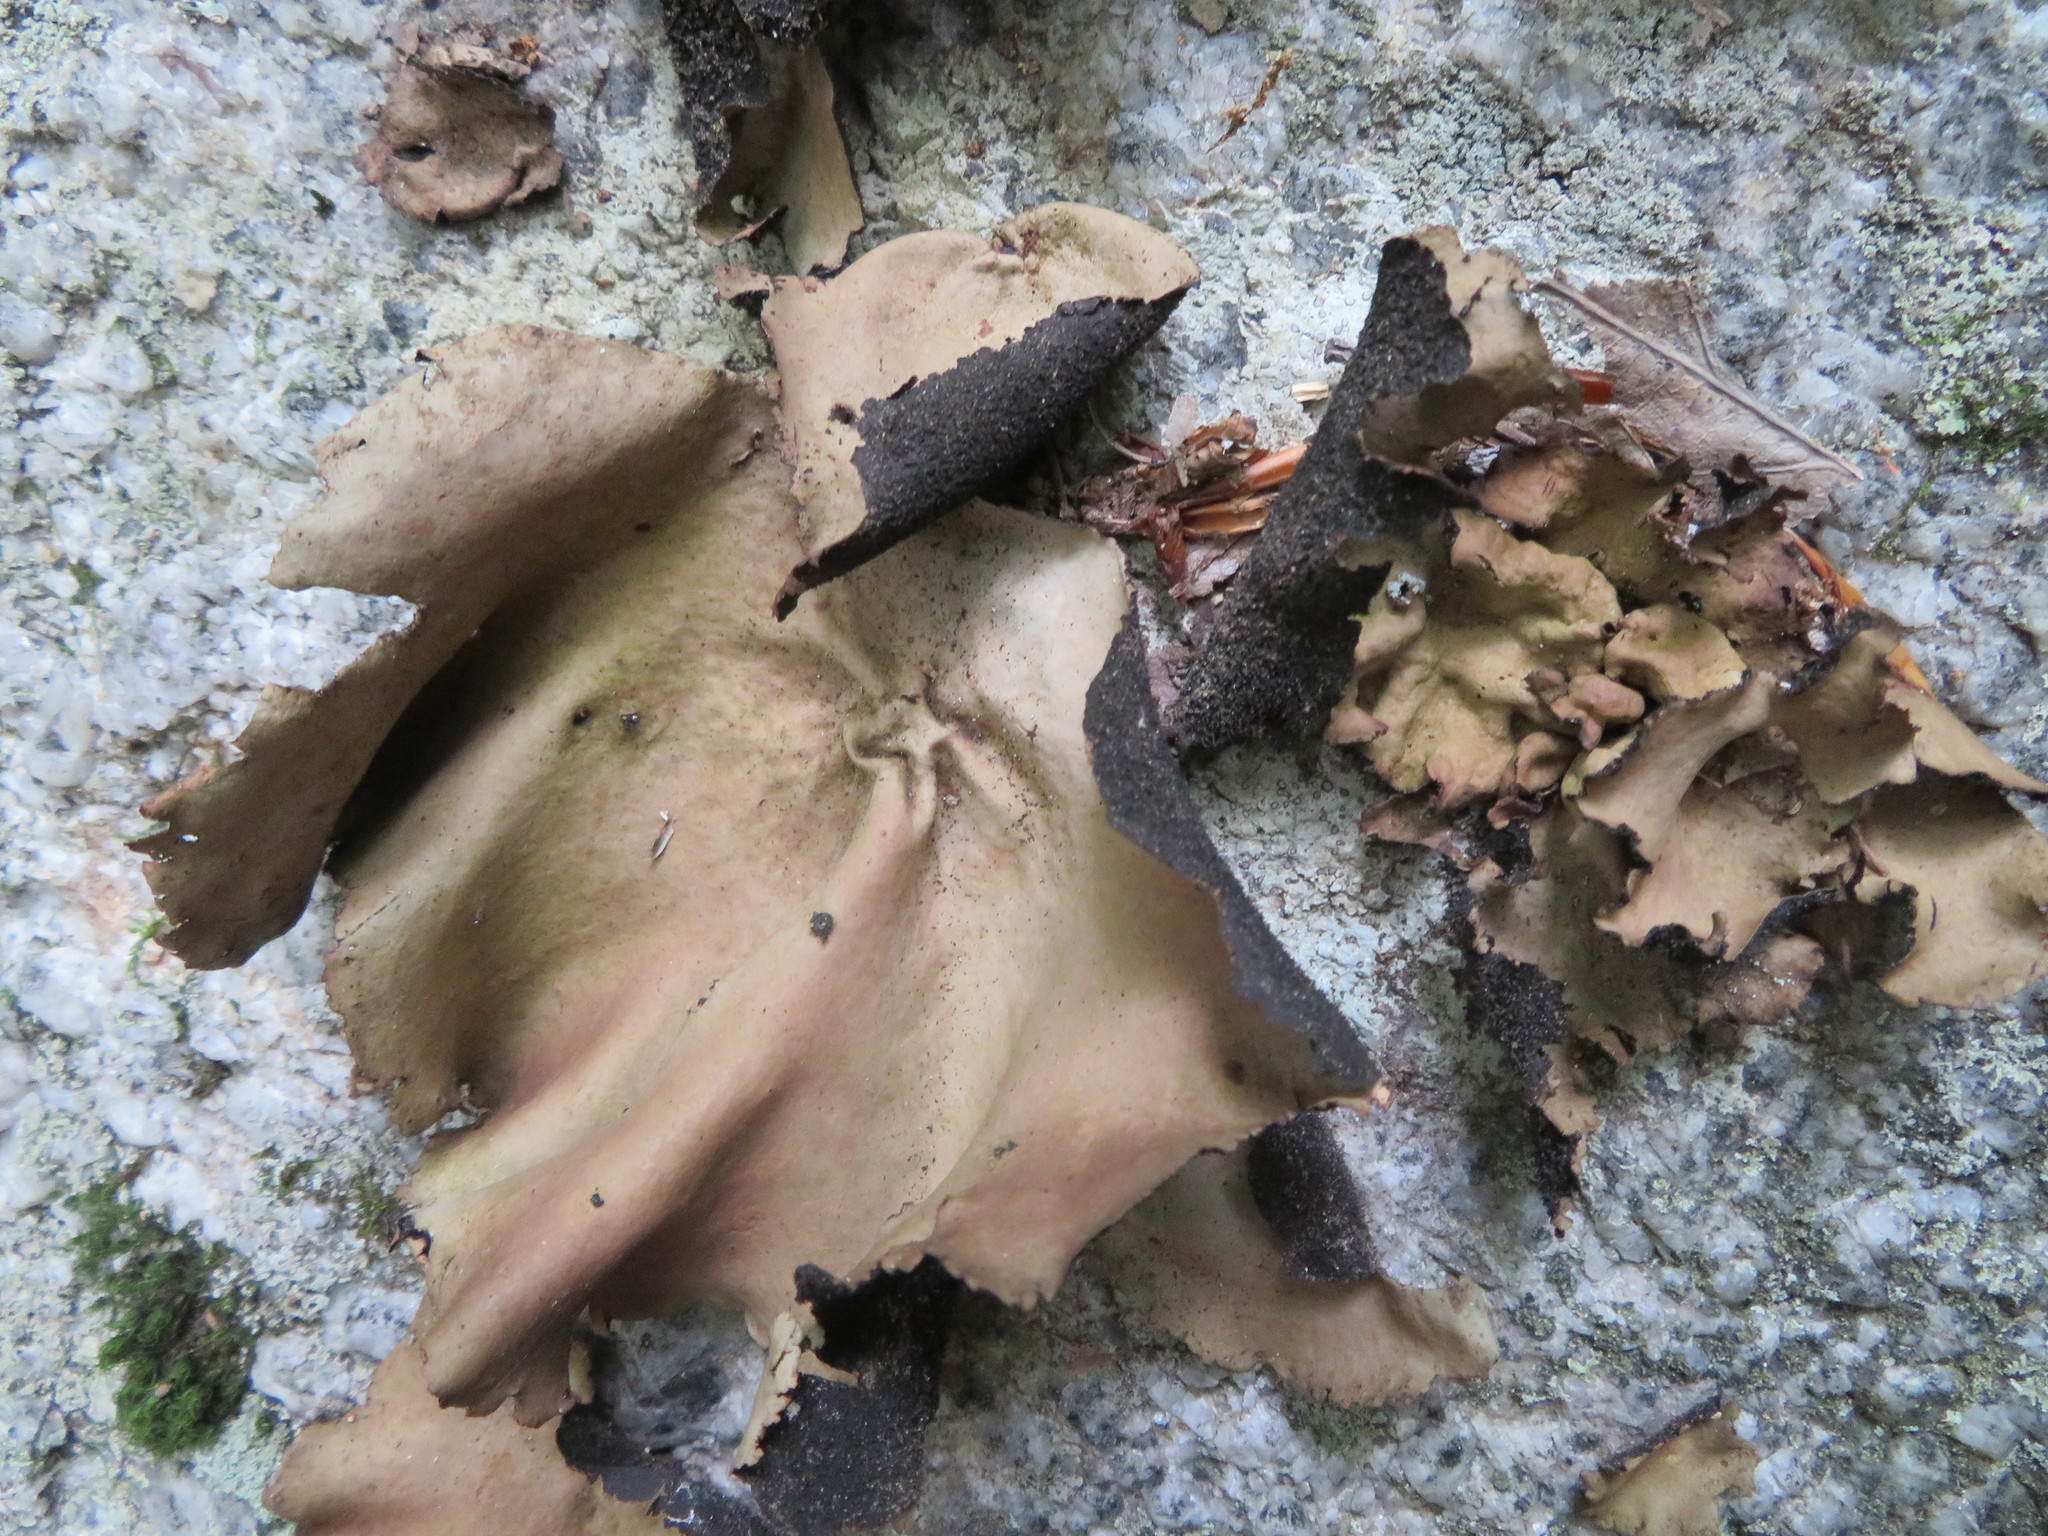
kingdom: Fungi
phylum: Ascomycota
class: Lecanoromycetes
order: Umbilicariales
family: Umbilicariaceae
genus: Umbilicaria
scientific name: Umbilicaria mammulata
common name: Smooth rock tripe
